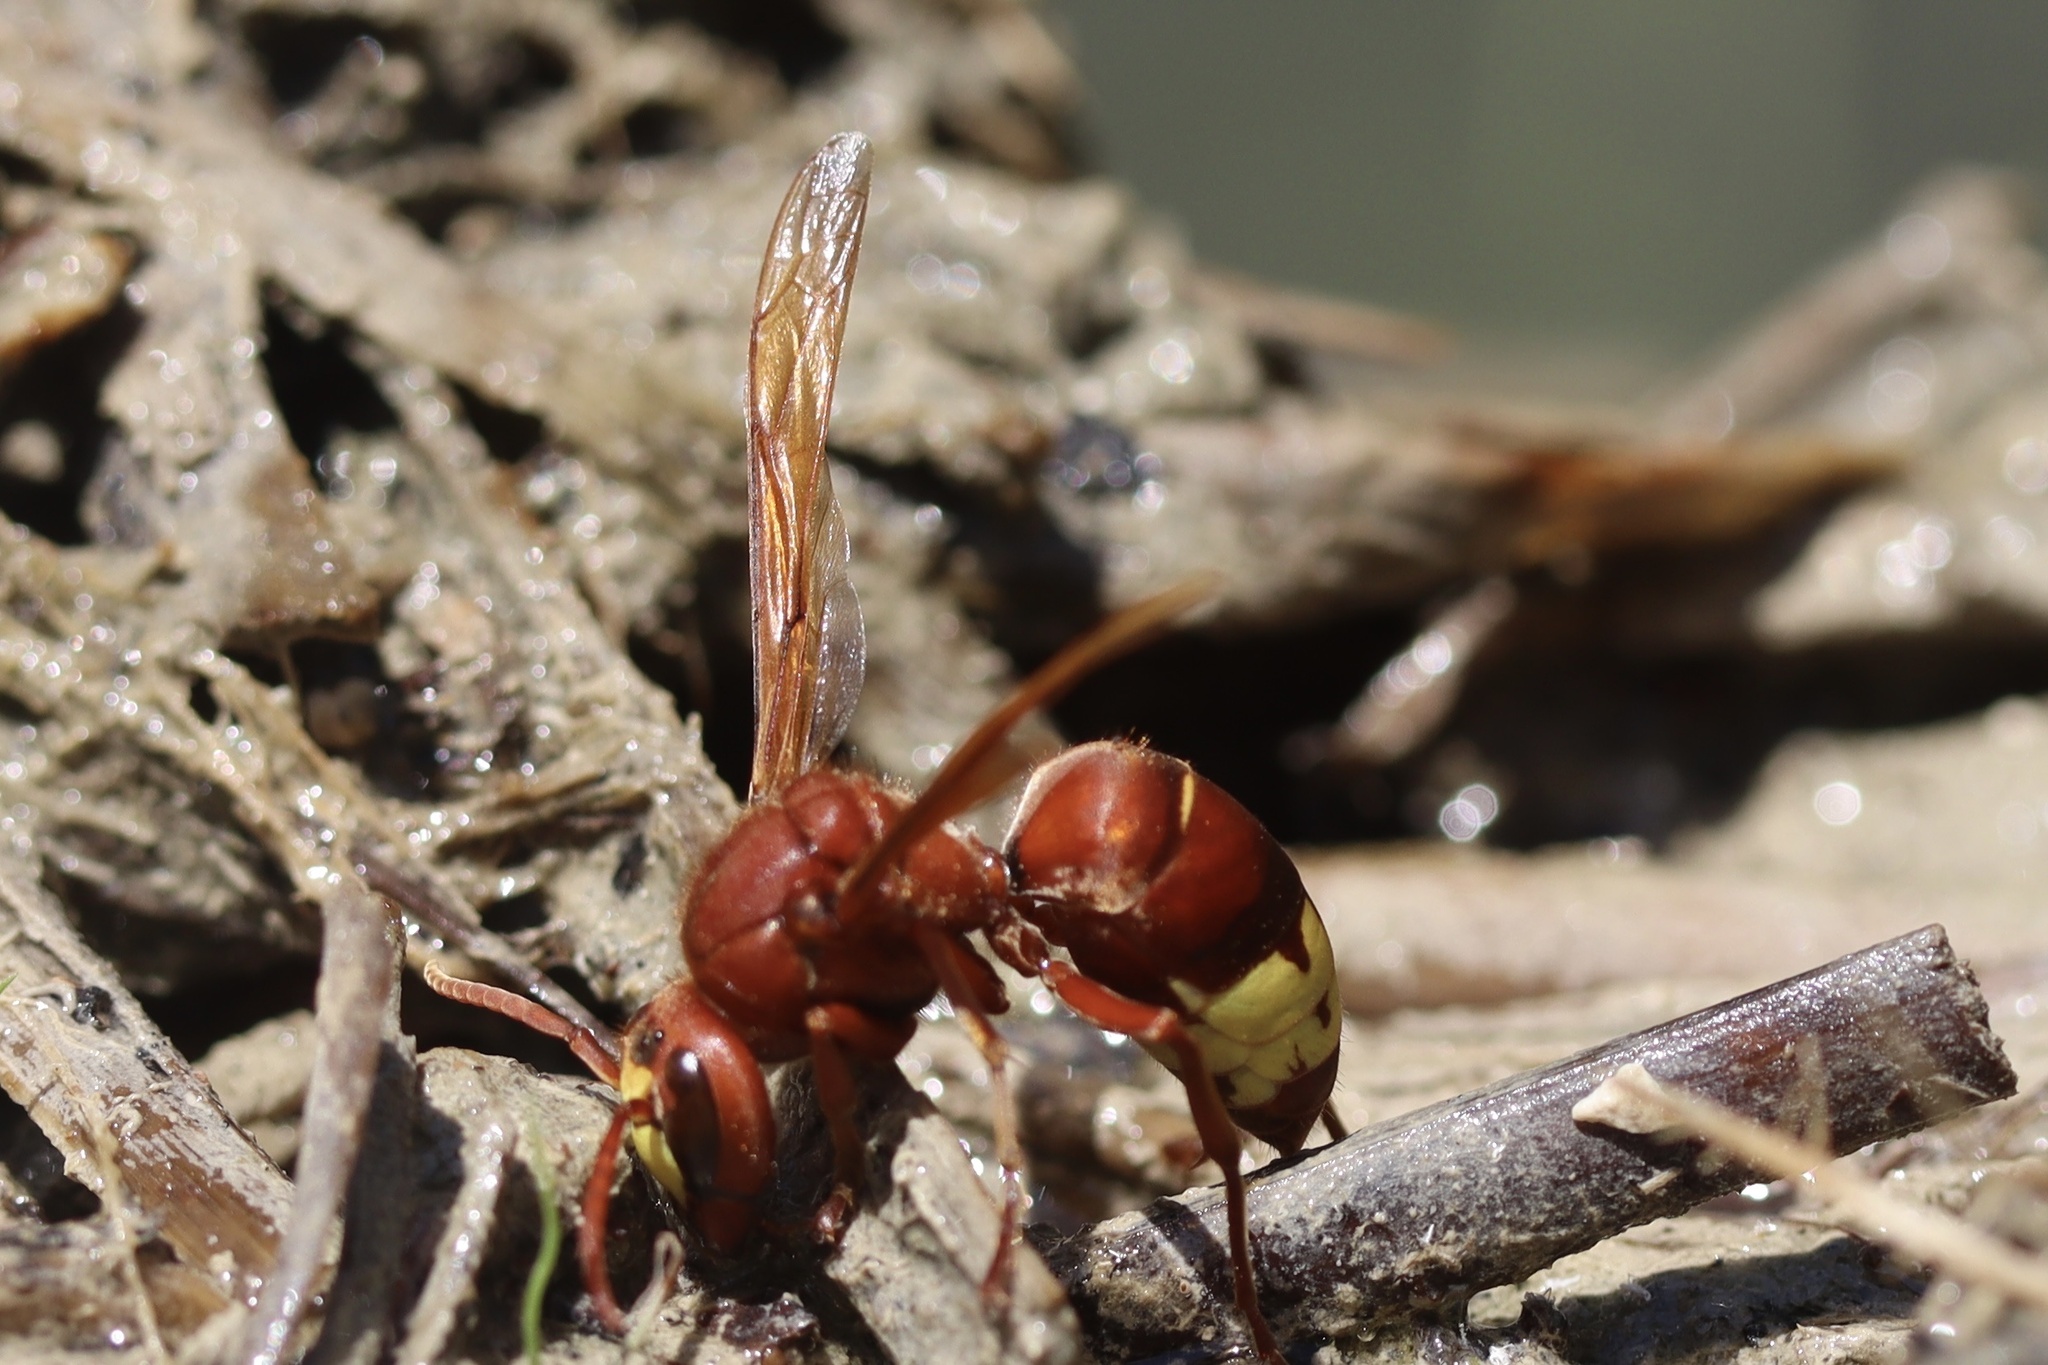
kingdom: Animalia
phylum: Arthropoda
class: Insecta
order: Hymenoptera
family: Vespidae
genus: Vespa
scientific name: Vespa orientalis
